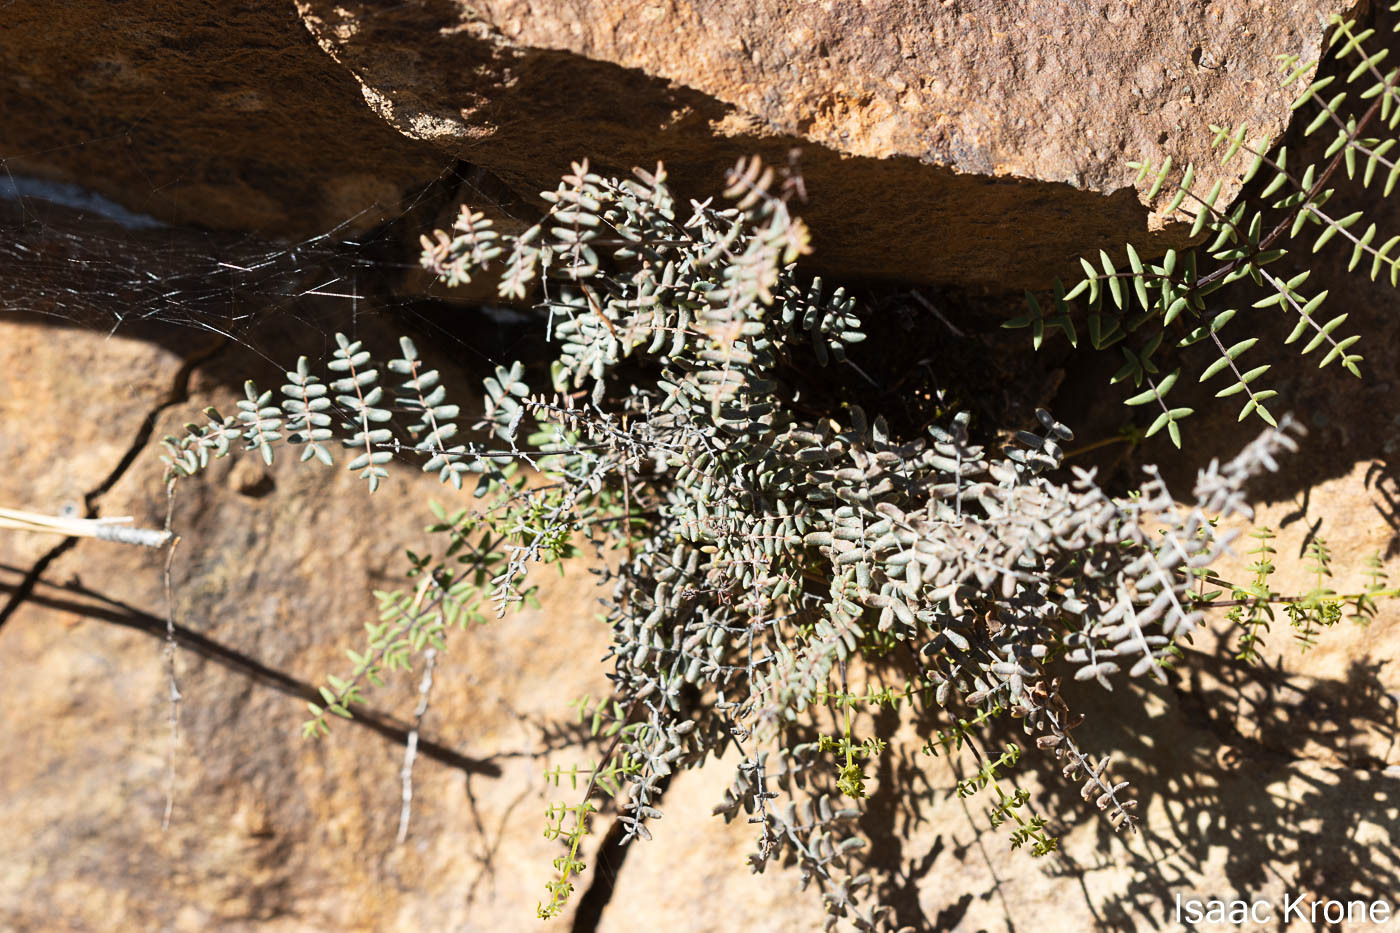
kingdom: Plantae
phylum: Tracheophyta
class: Polypodiopsida
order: Polypodiales
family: Pteridaceae
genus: Pellaea
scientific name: Pellaea mucronata
